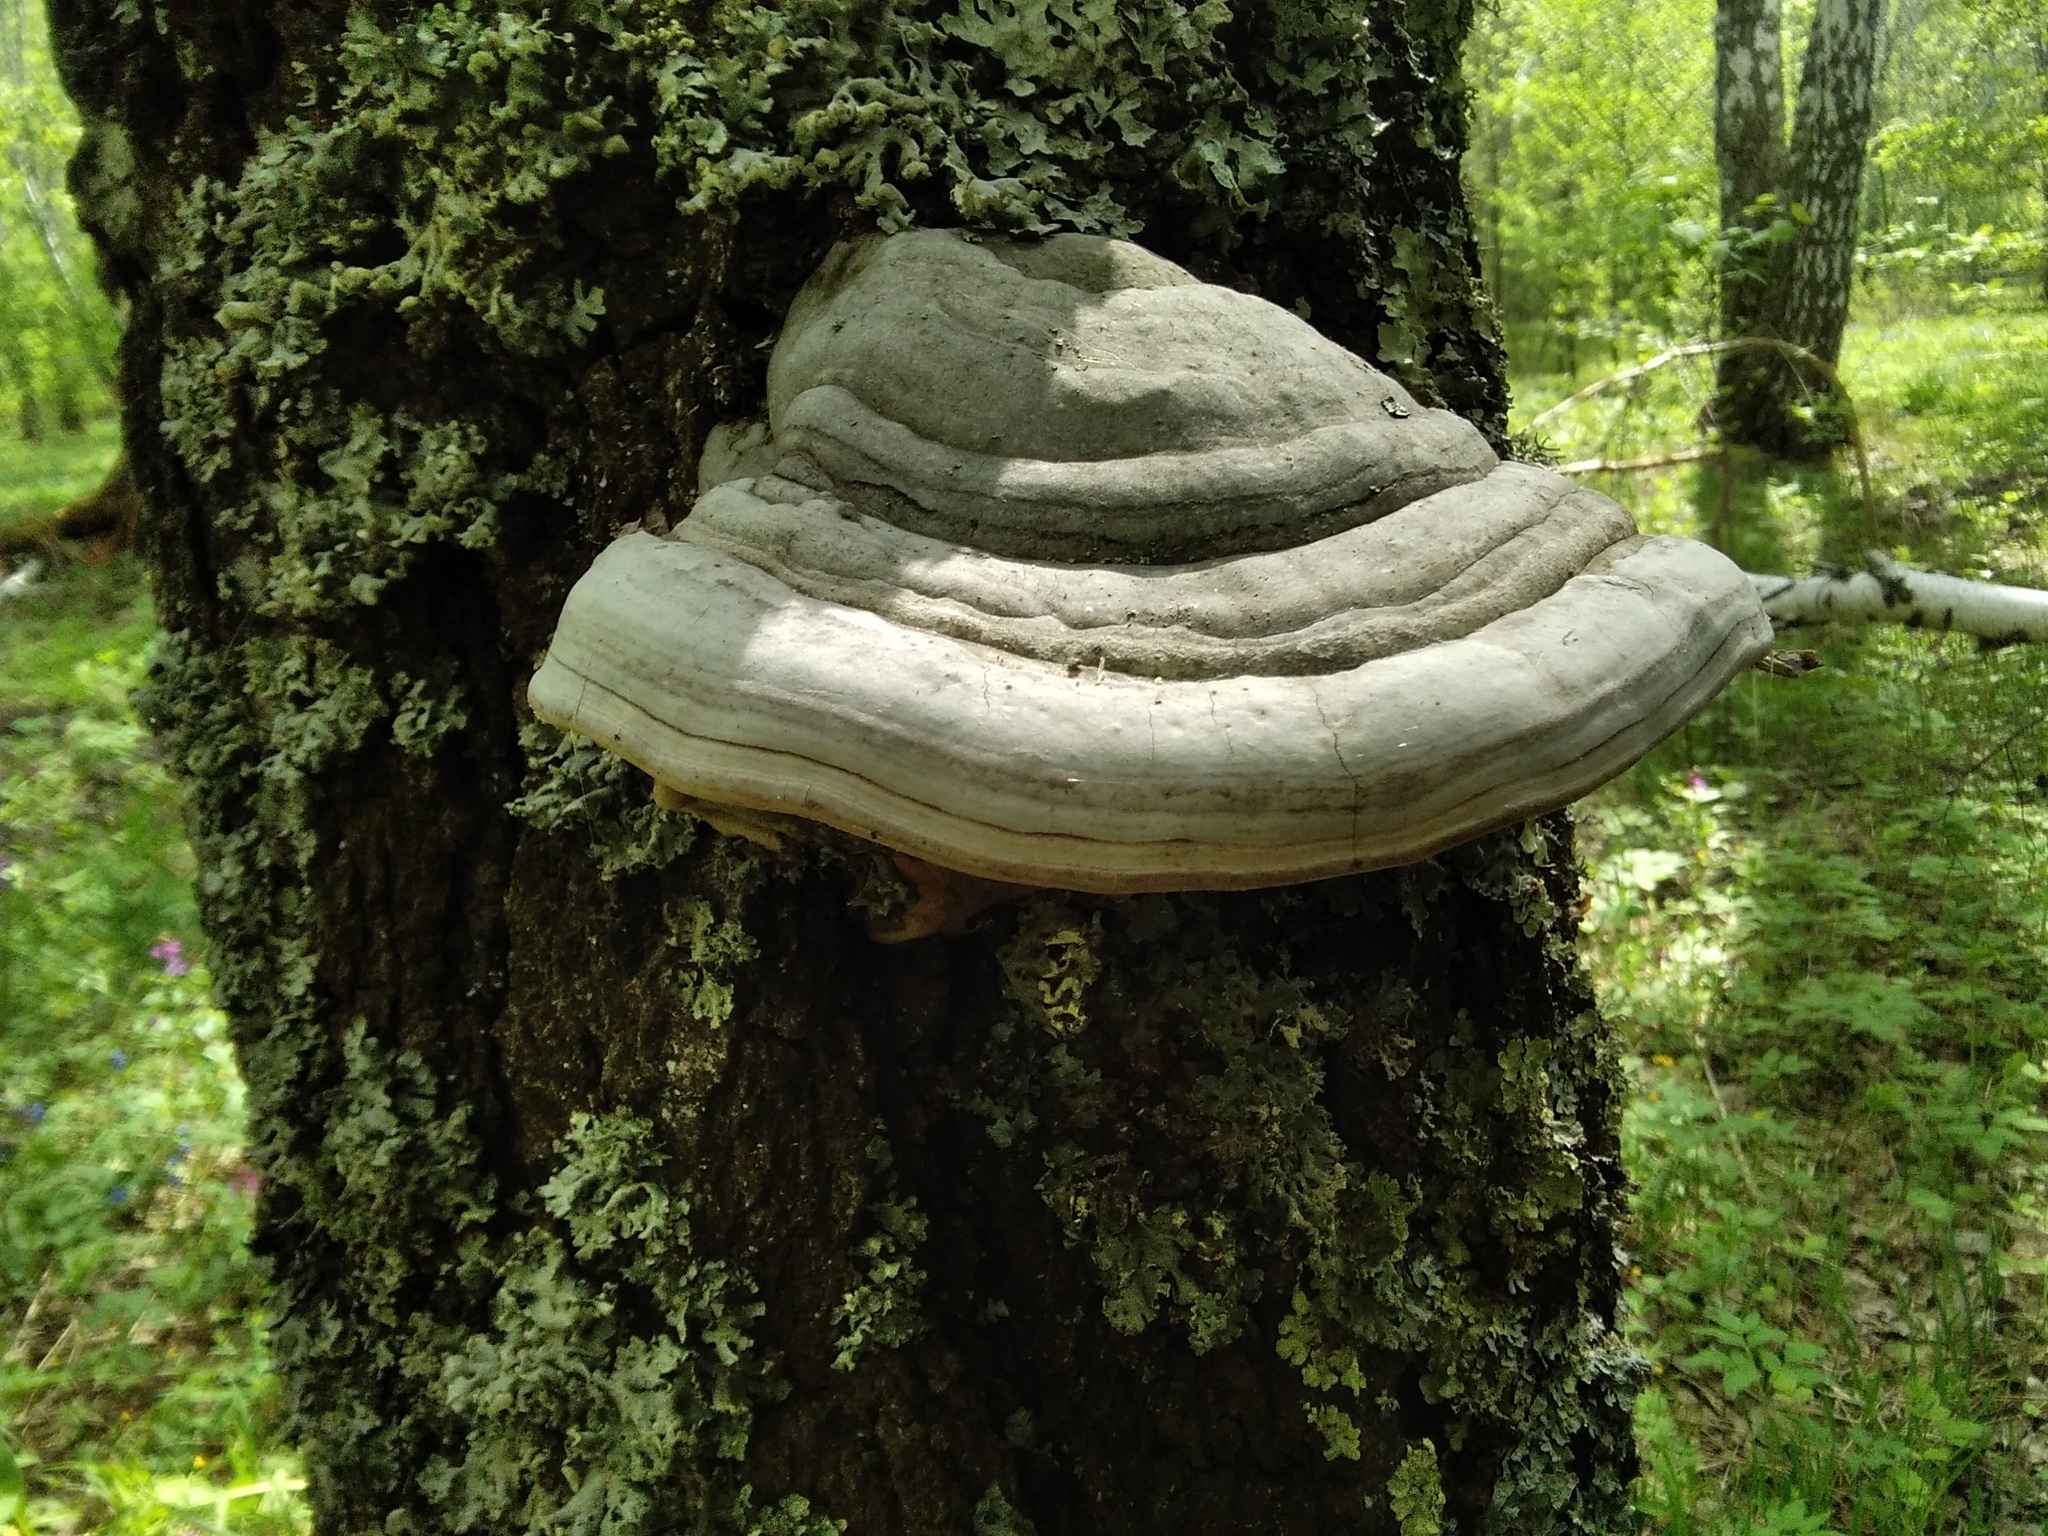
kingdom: Fungi
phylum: Basidiomycota
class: Agaricomycetes
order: Polyporales
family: Polyporaceae
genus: Fomes
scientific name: Fomes fomentarius
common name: Hoof fungus
